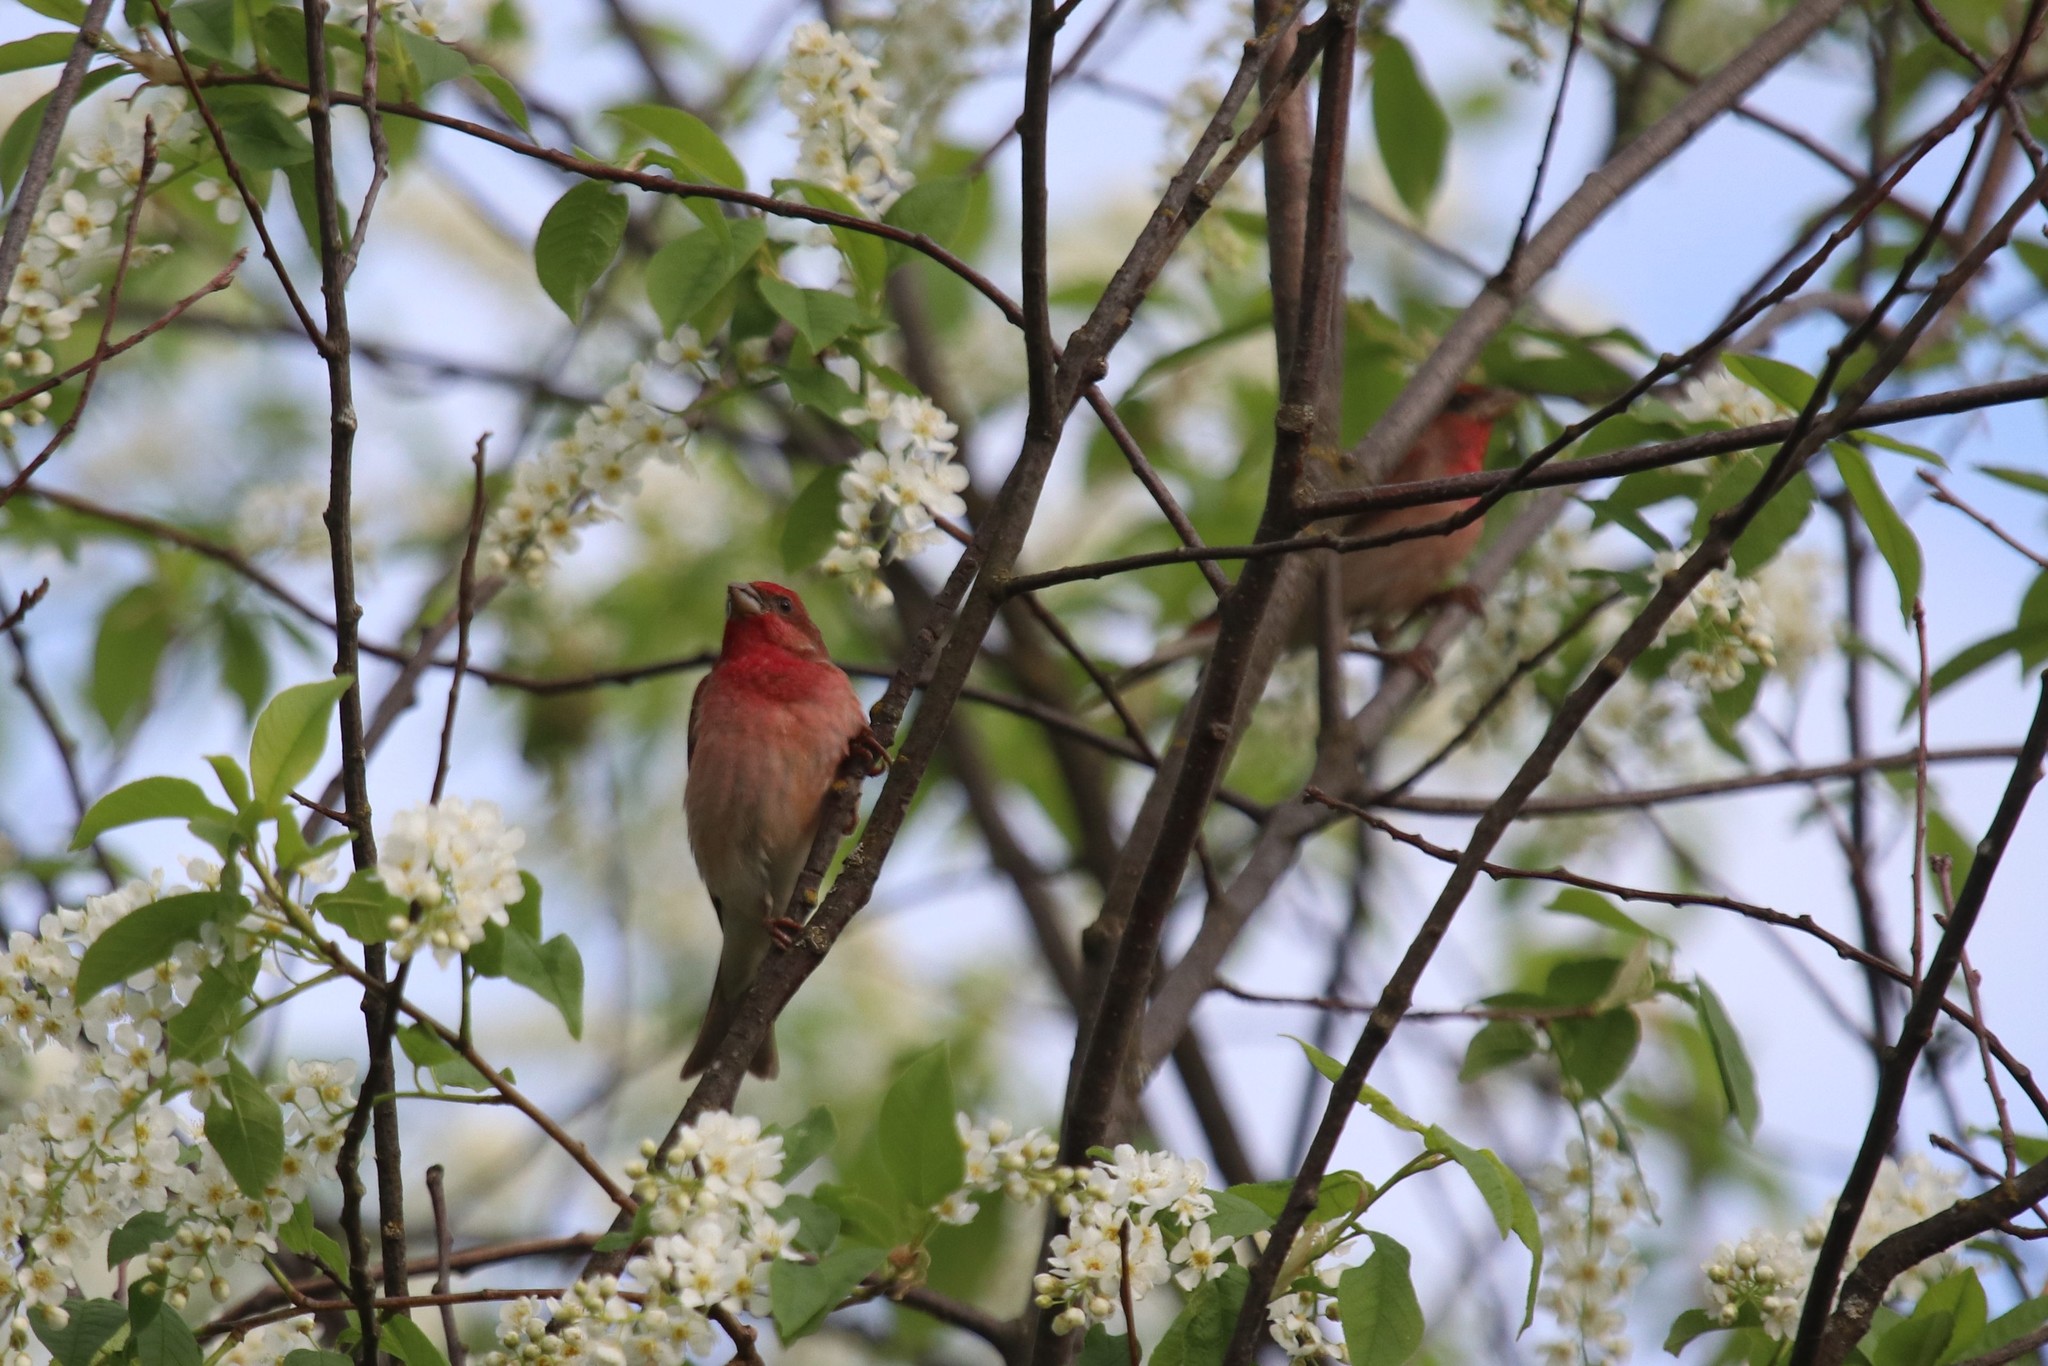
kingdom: Animalia
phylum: Chordata
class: Aves
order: Passeriformes
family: Fringillidae
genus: Carpodacus
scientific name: Carpodacus erythrinus
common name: Common rosefinch
